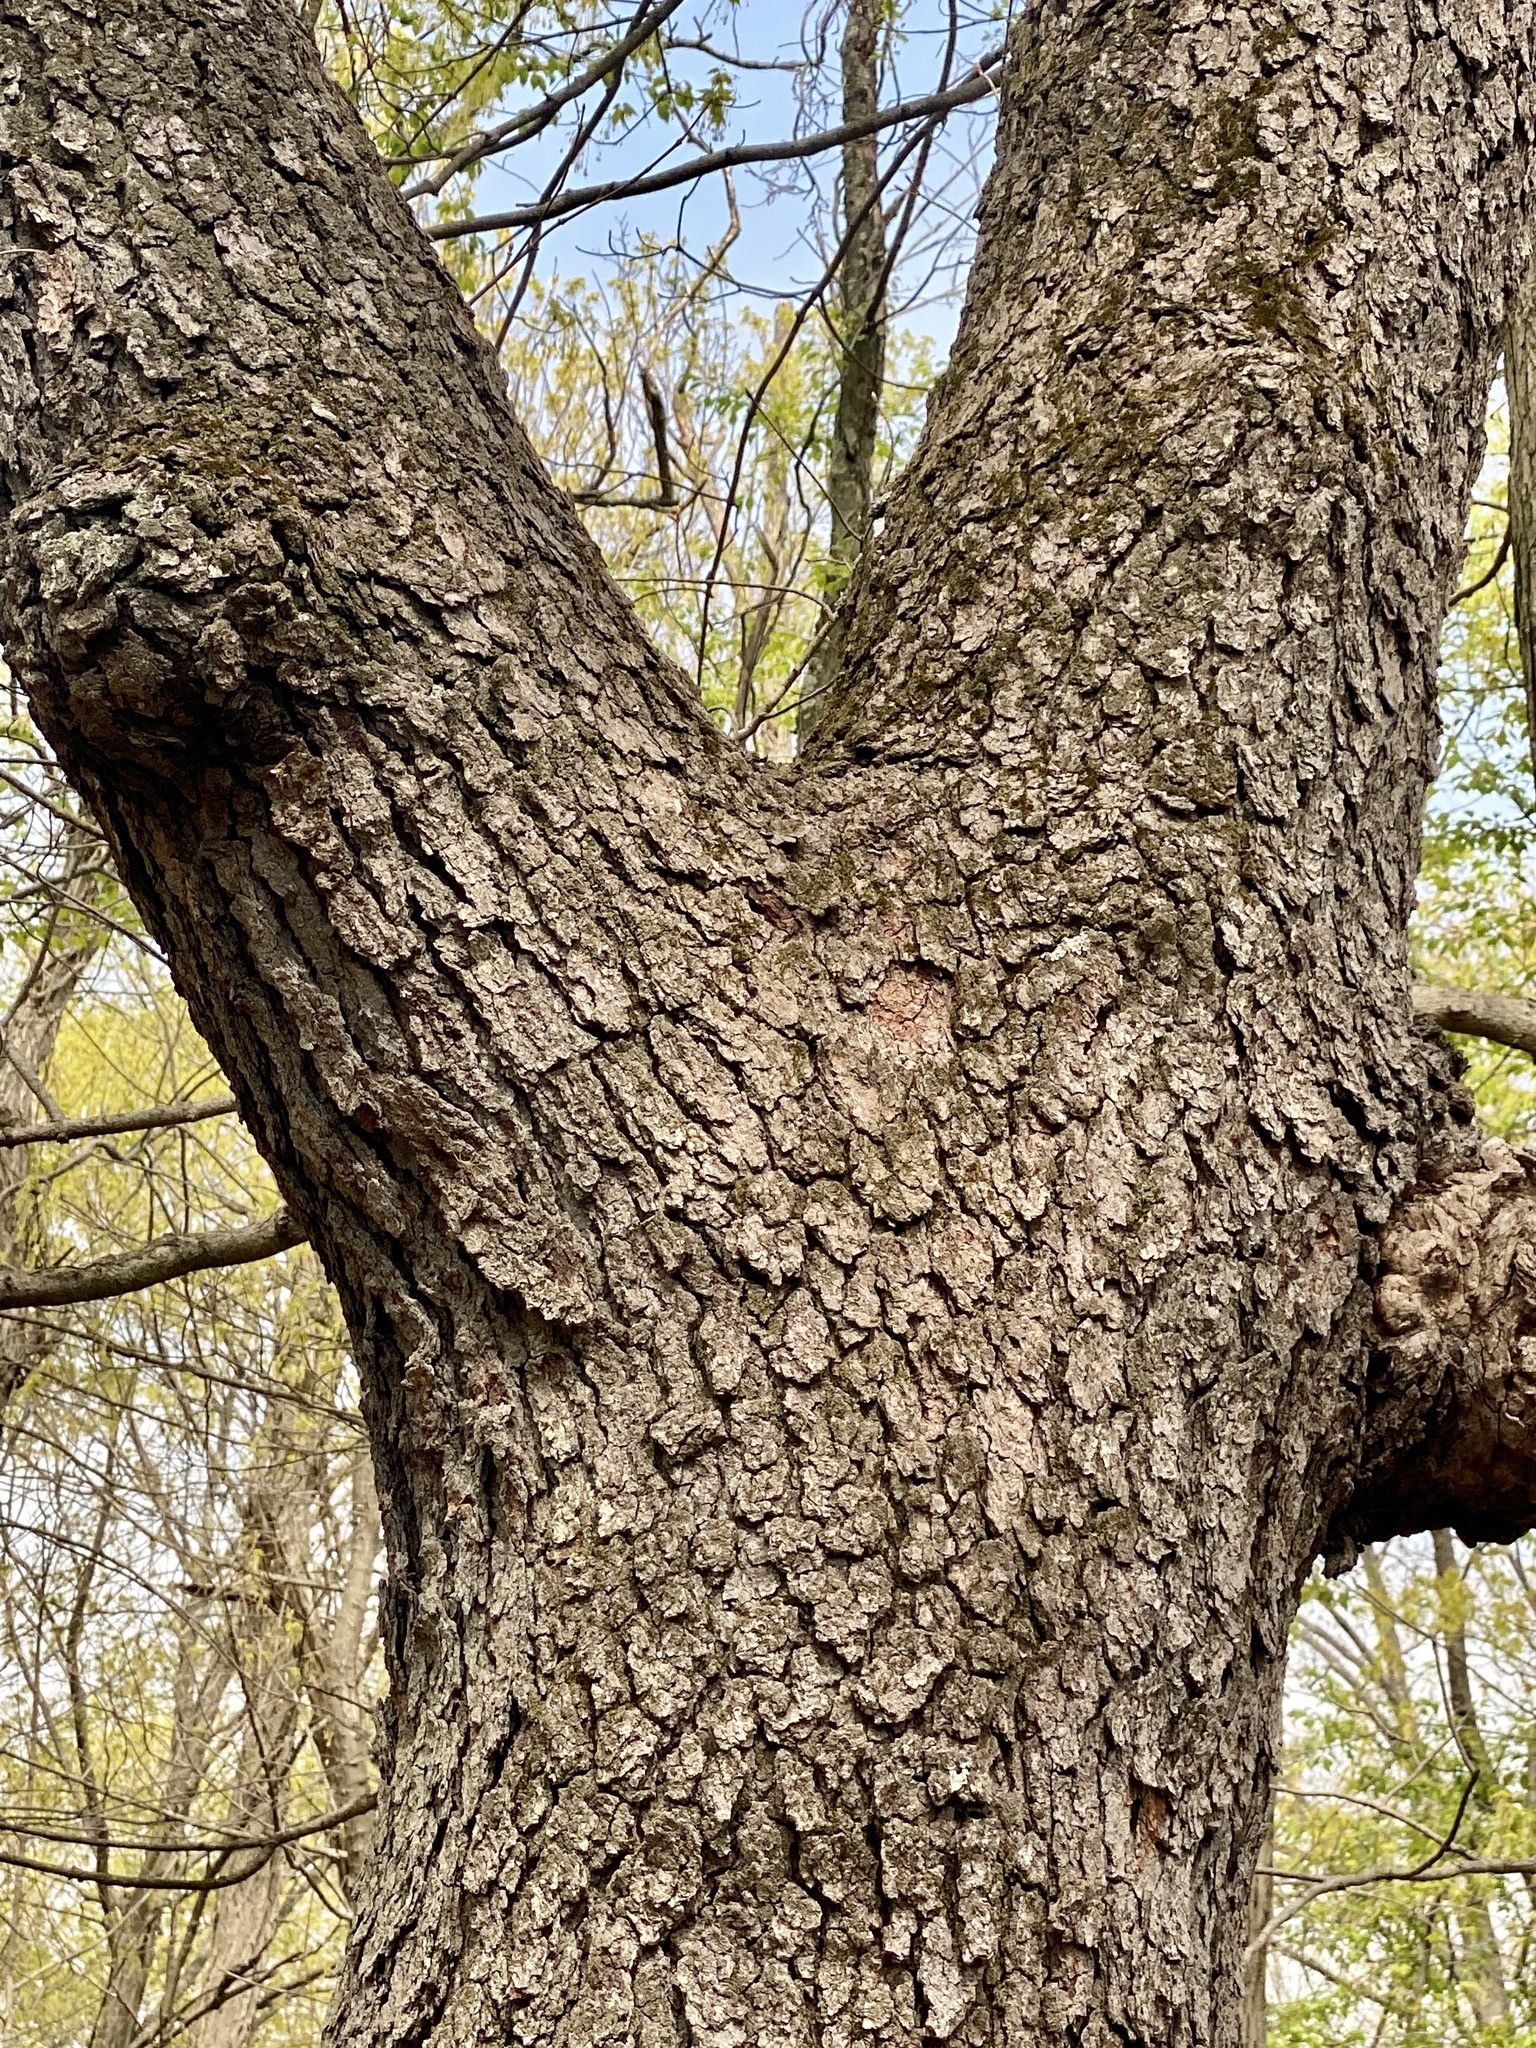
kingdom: Plantae
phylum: Tracheophyta
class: Magnoliopsida
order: Rosales
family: Rosaceae
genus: Prunus
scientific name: Prunus serotina
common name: Black cherry
